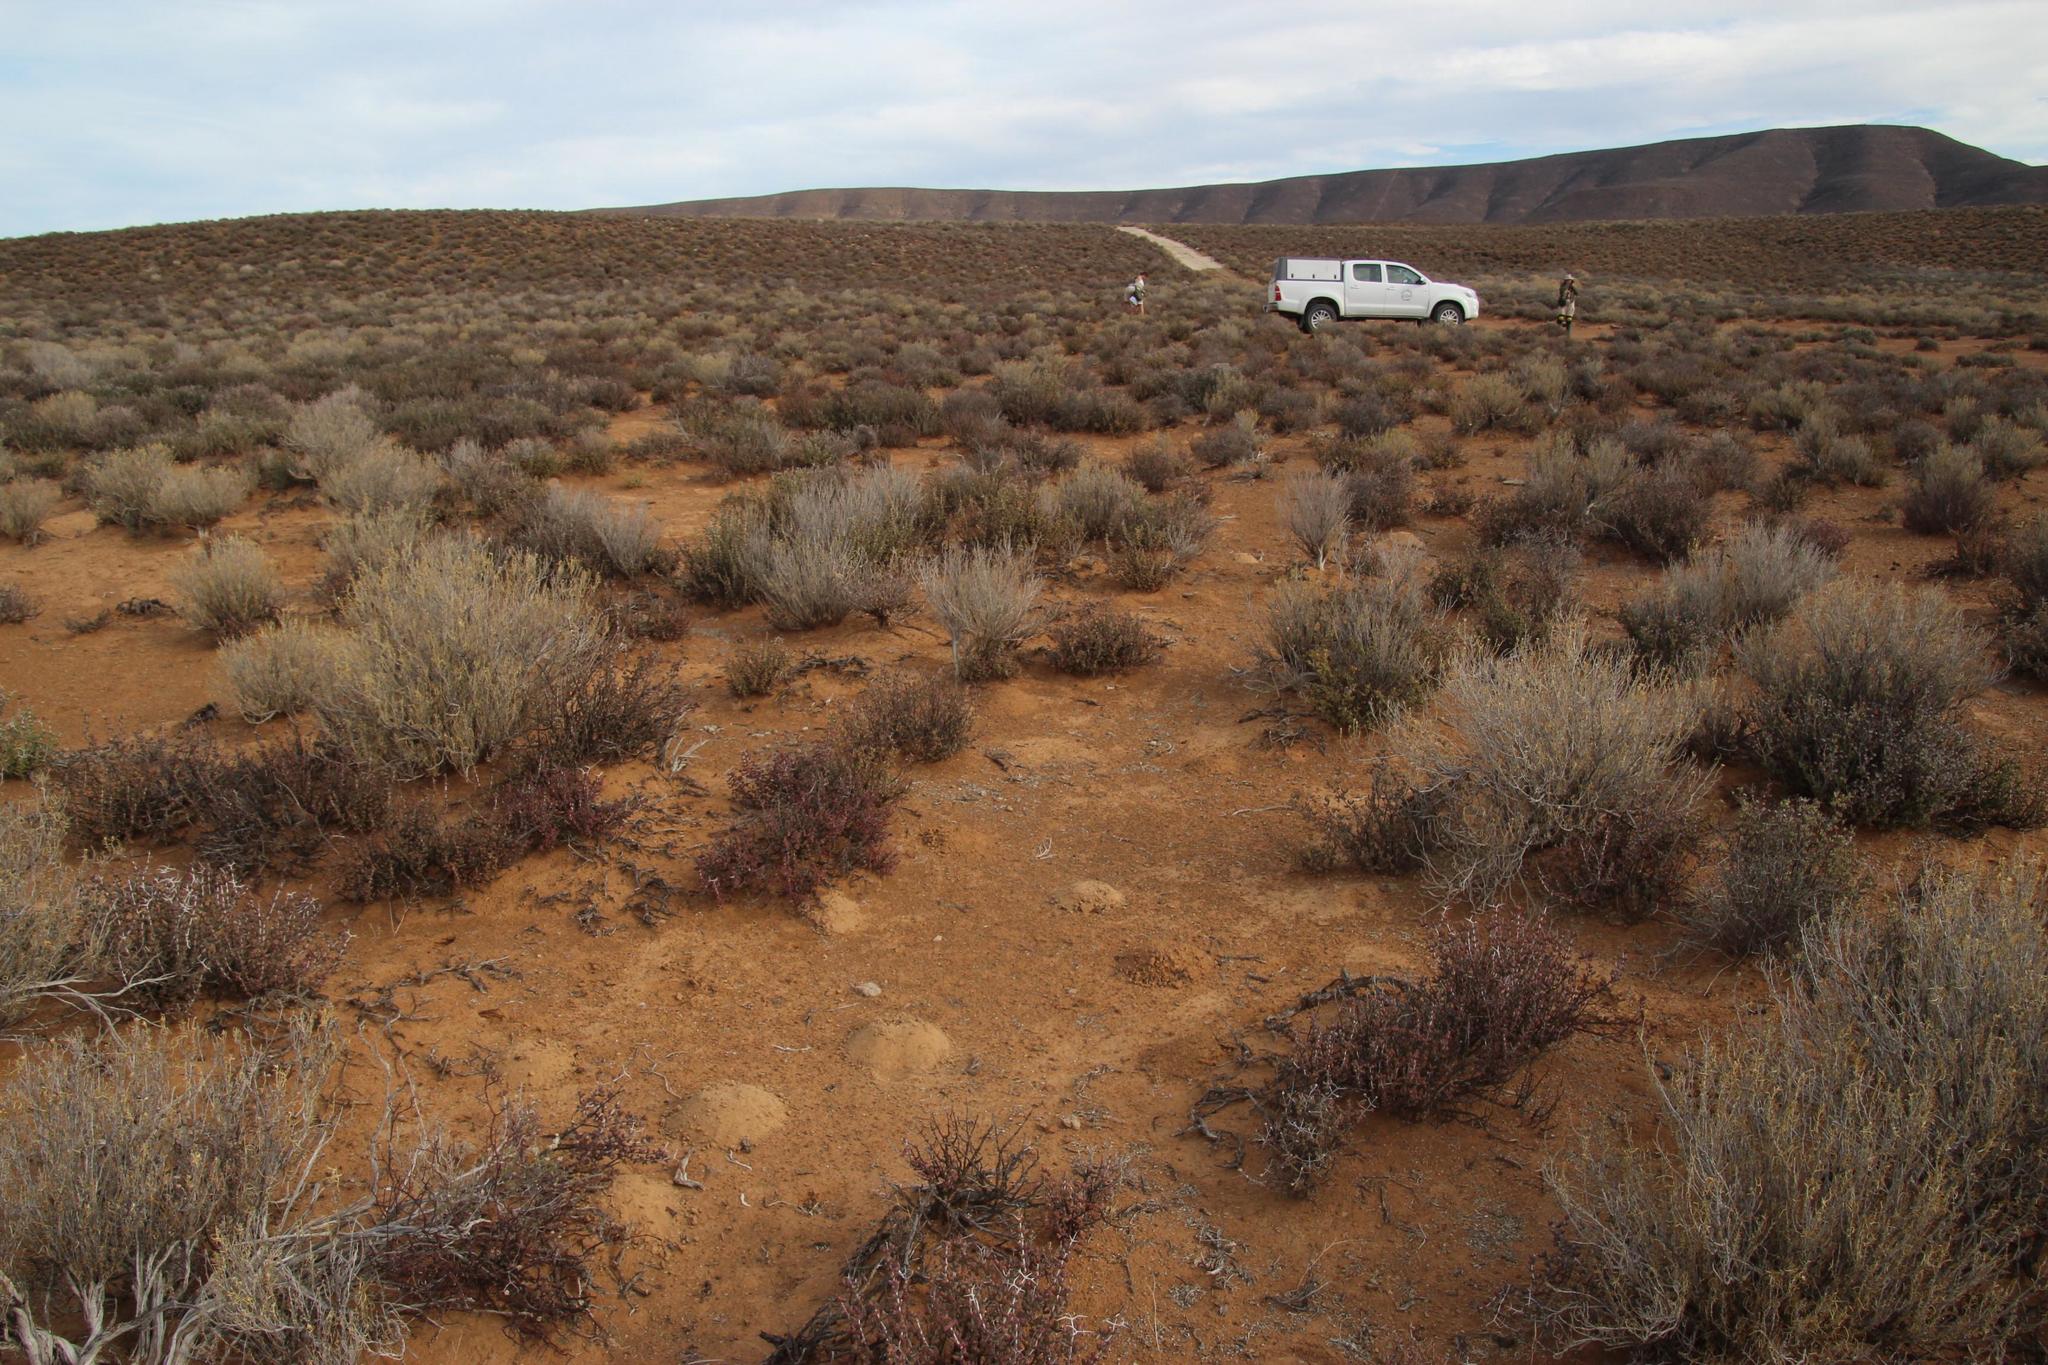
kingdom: Plantae
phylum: Tracheophyta
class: Magnoliopsida
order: Asterales
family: Asteraceae
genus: Pteronia
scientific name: Pteronia pallens
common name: Scholtzbush
